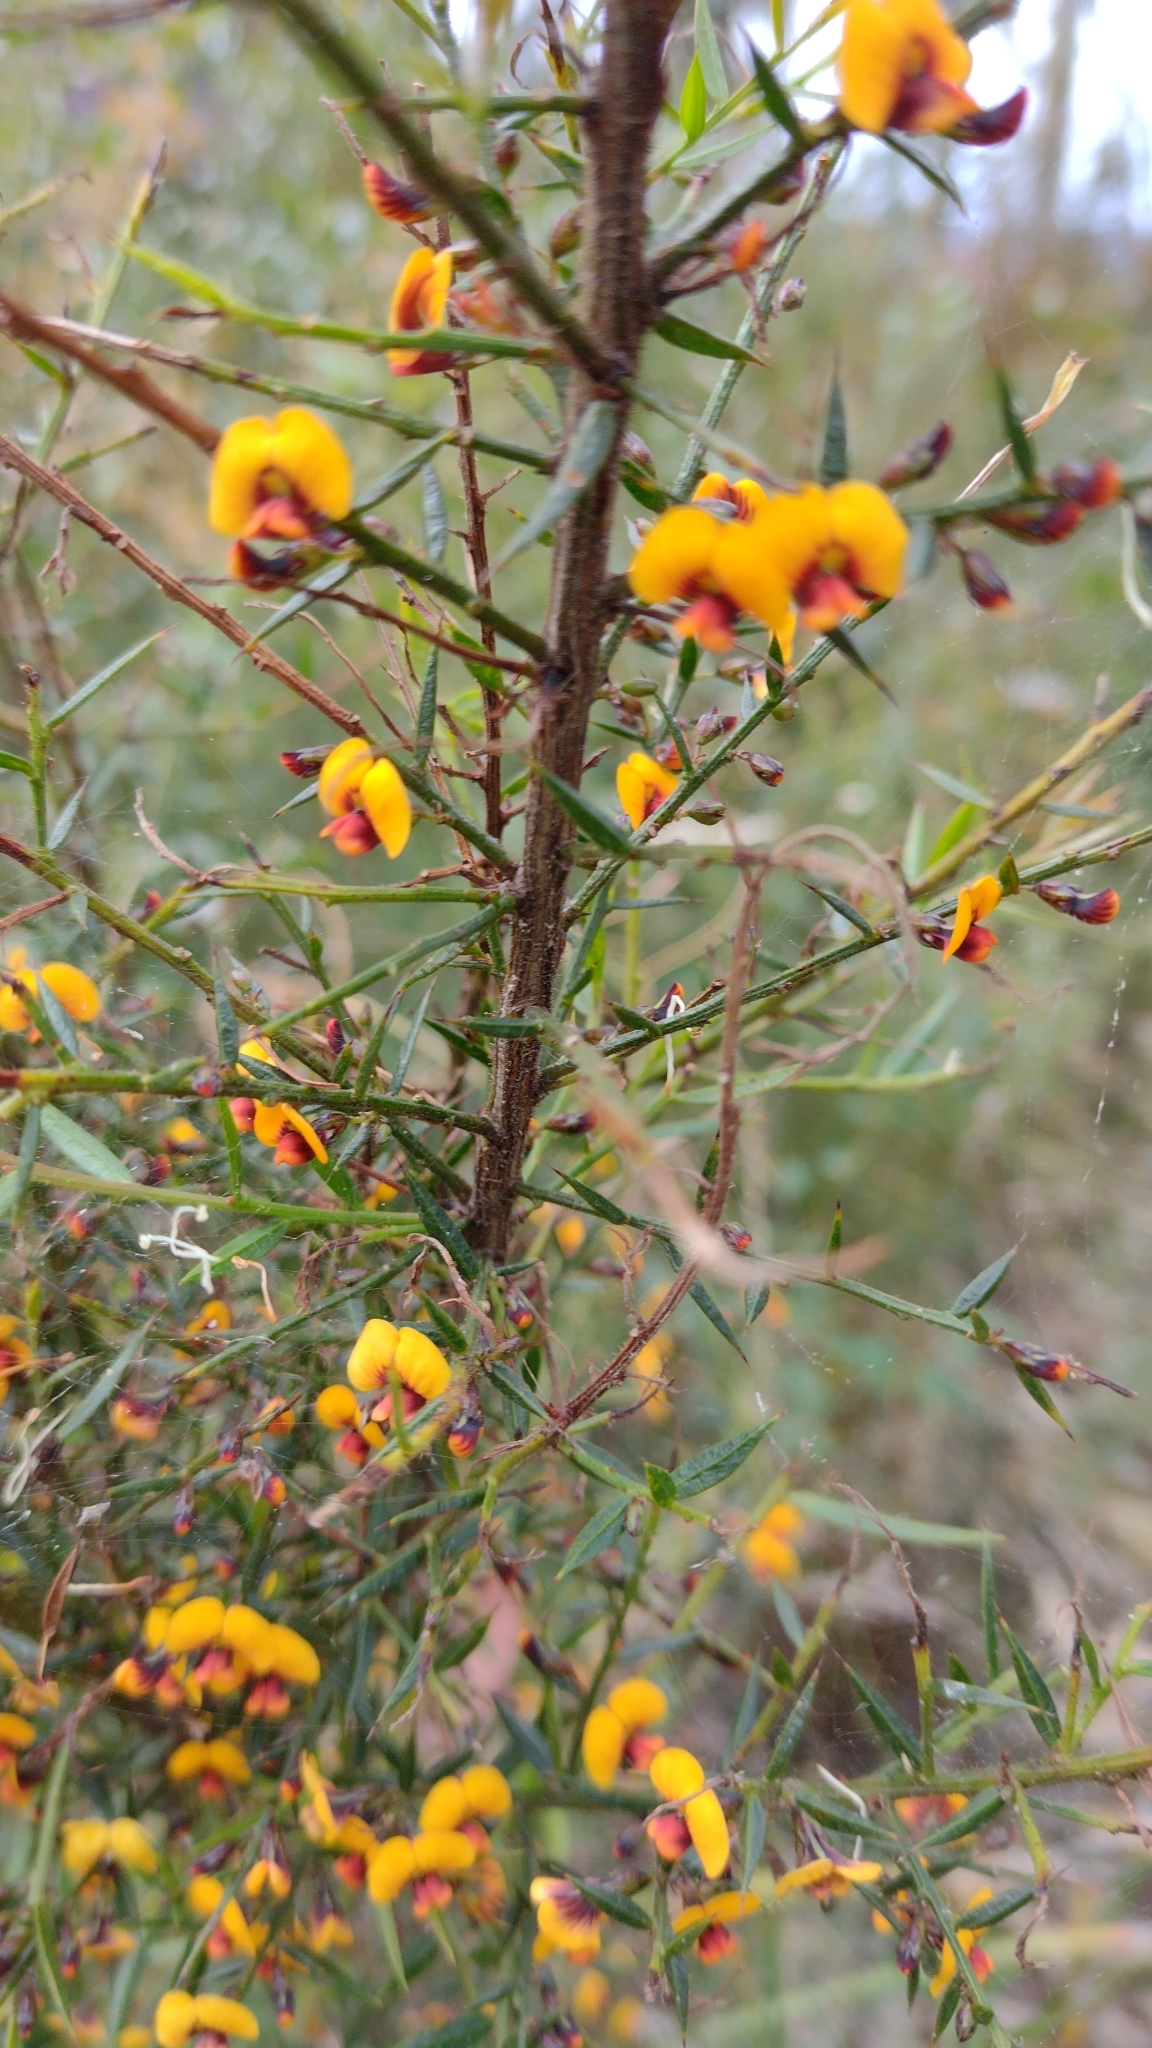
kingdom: Plantae
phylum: Tracheophyta
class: Magnoliopsida
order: Fabales
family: Fabaceae
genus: Daviesia
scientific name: Daviesia ulicifolia
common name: Gorse bitter-pea
